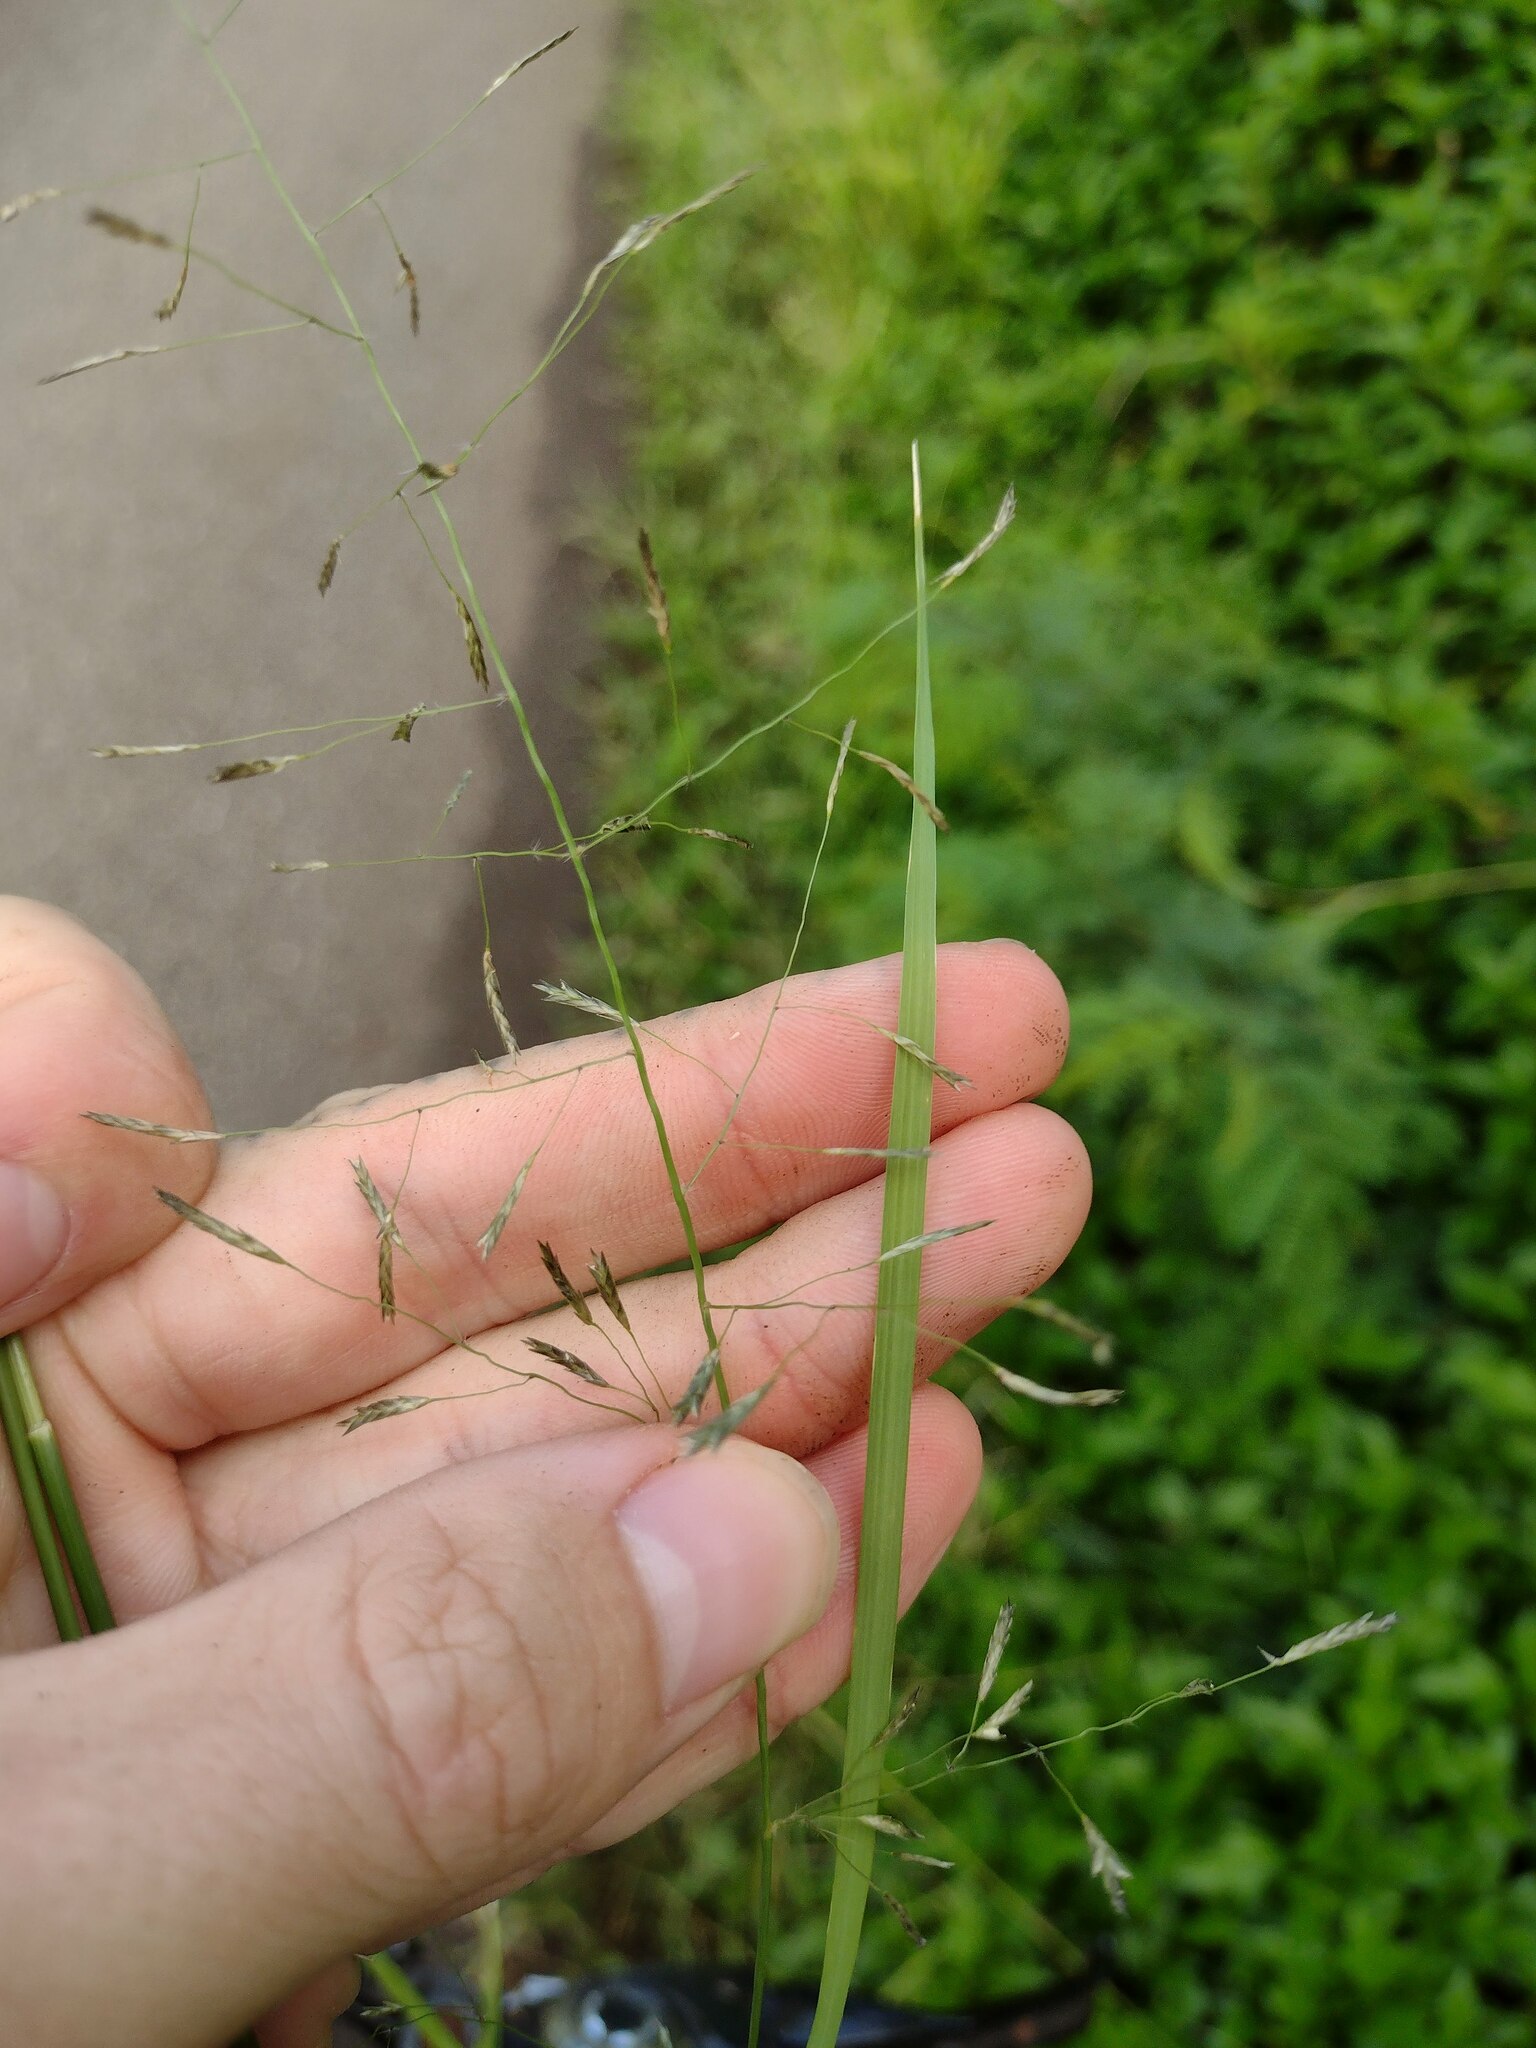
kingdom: Plantae
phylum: Tracheophyta
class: Liliopsida
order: Poales
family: Poaceae
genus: Eragrostis
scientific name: Eragrostis tenuifolia
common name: Elastic grass
